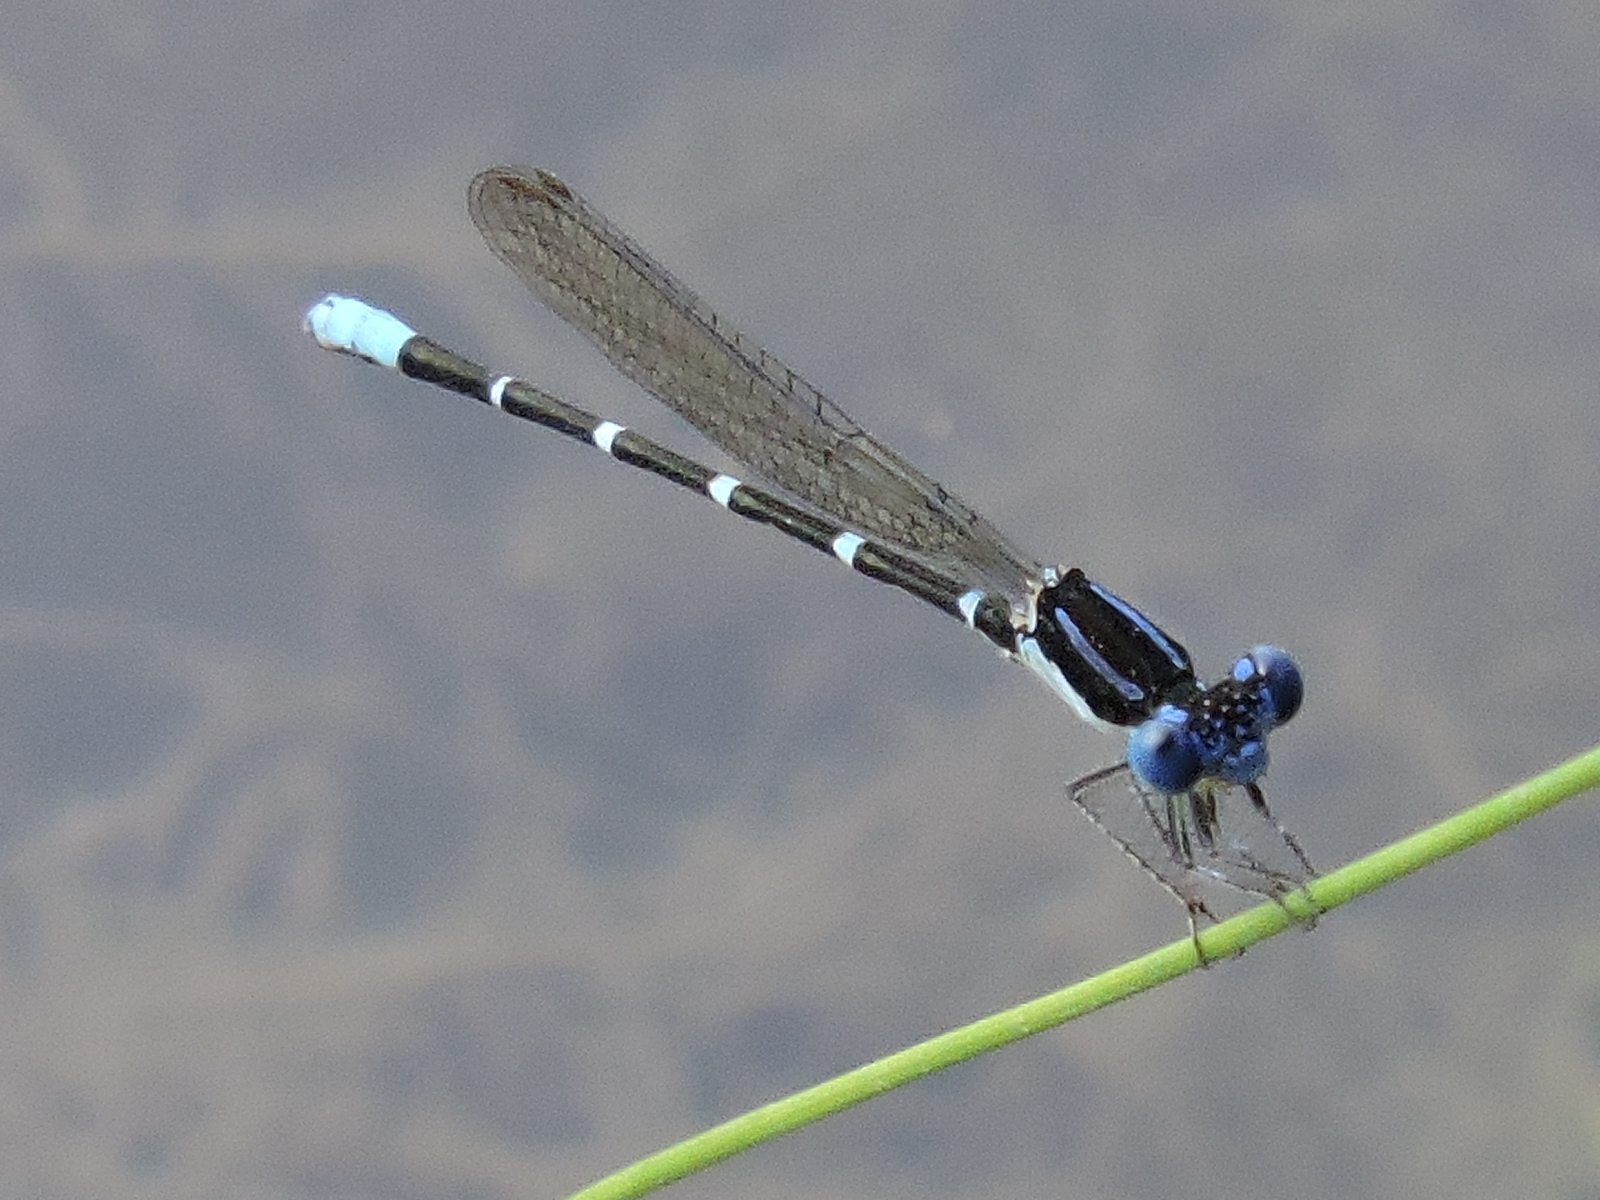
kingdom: Animalia
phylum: Arthropoda
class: Insecta
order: Odonata
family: Coenagrionidae
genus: Argia
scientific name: Argia sedula
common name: Blue-ringed dancer
